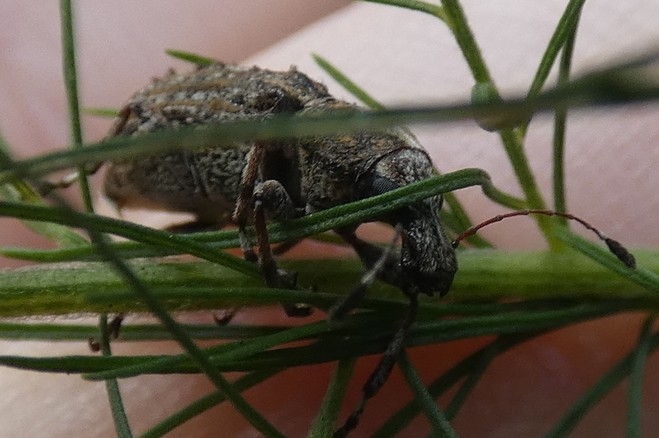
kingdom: Animalia
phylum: Arthropoda
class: Insecta
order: Coleoptera
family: Anthribidae
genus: Meconemus
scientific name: Meconemus infuscatus
